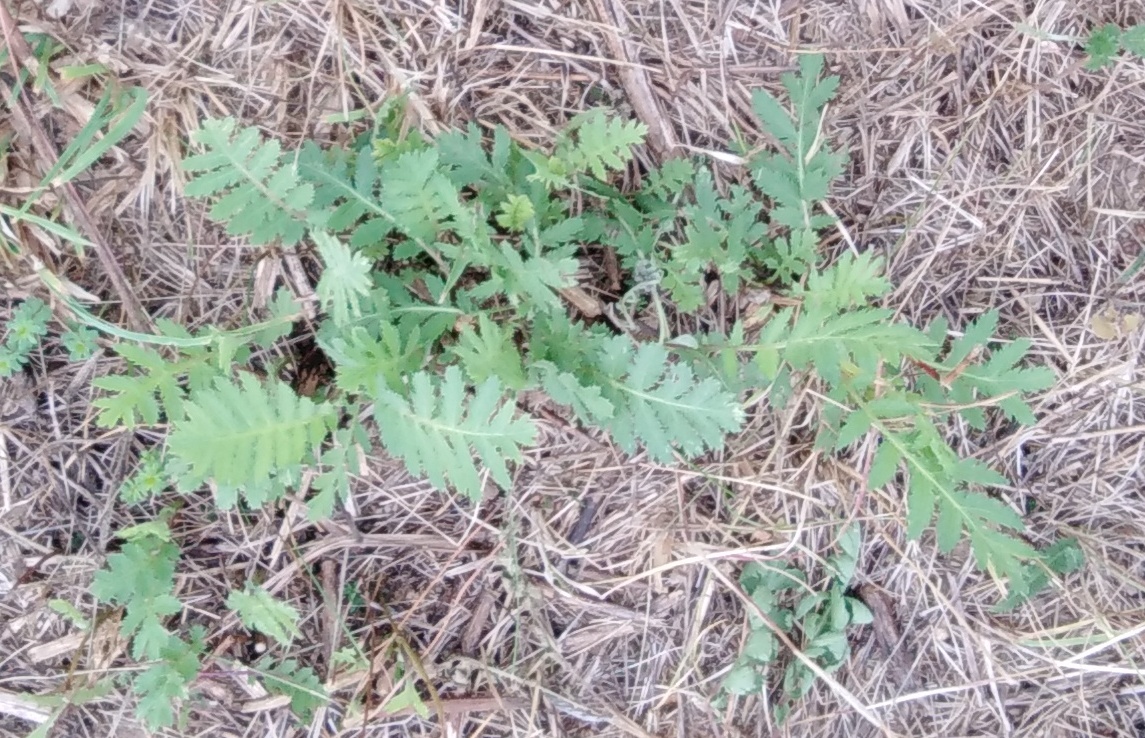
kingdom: Plantae
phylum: Tracheophyta
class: Magnoliopsida
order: Asterales
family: Asteraceae
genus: Tanacetum
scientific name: Tanacetum vulgare
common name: Common tansy
